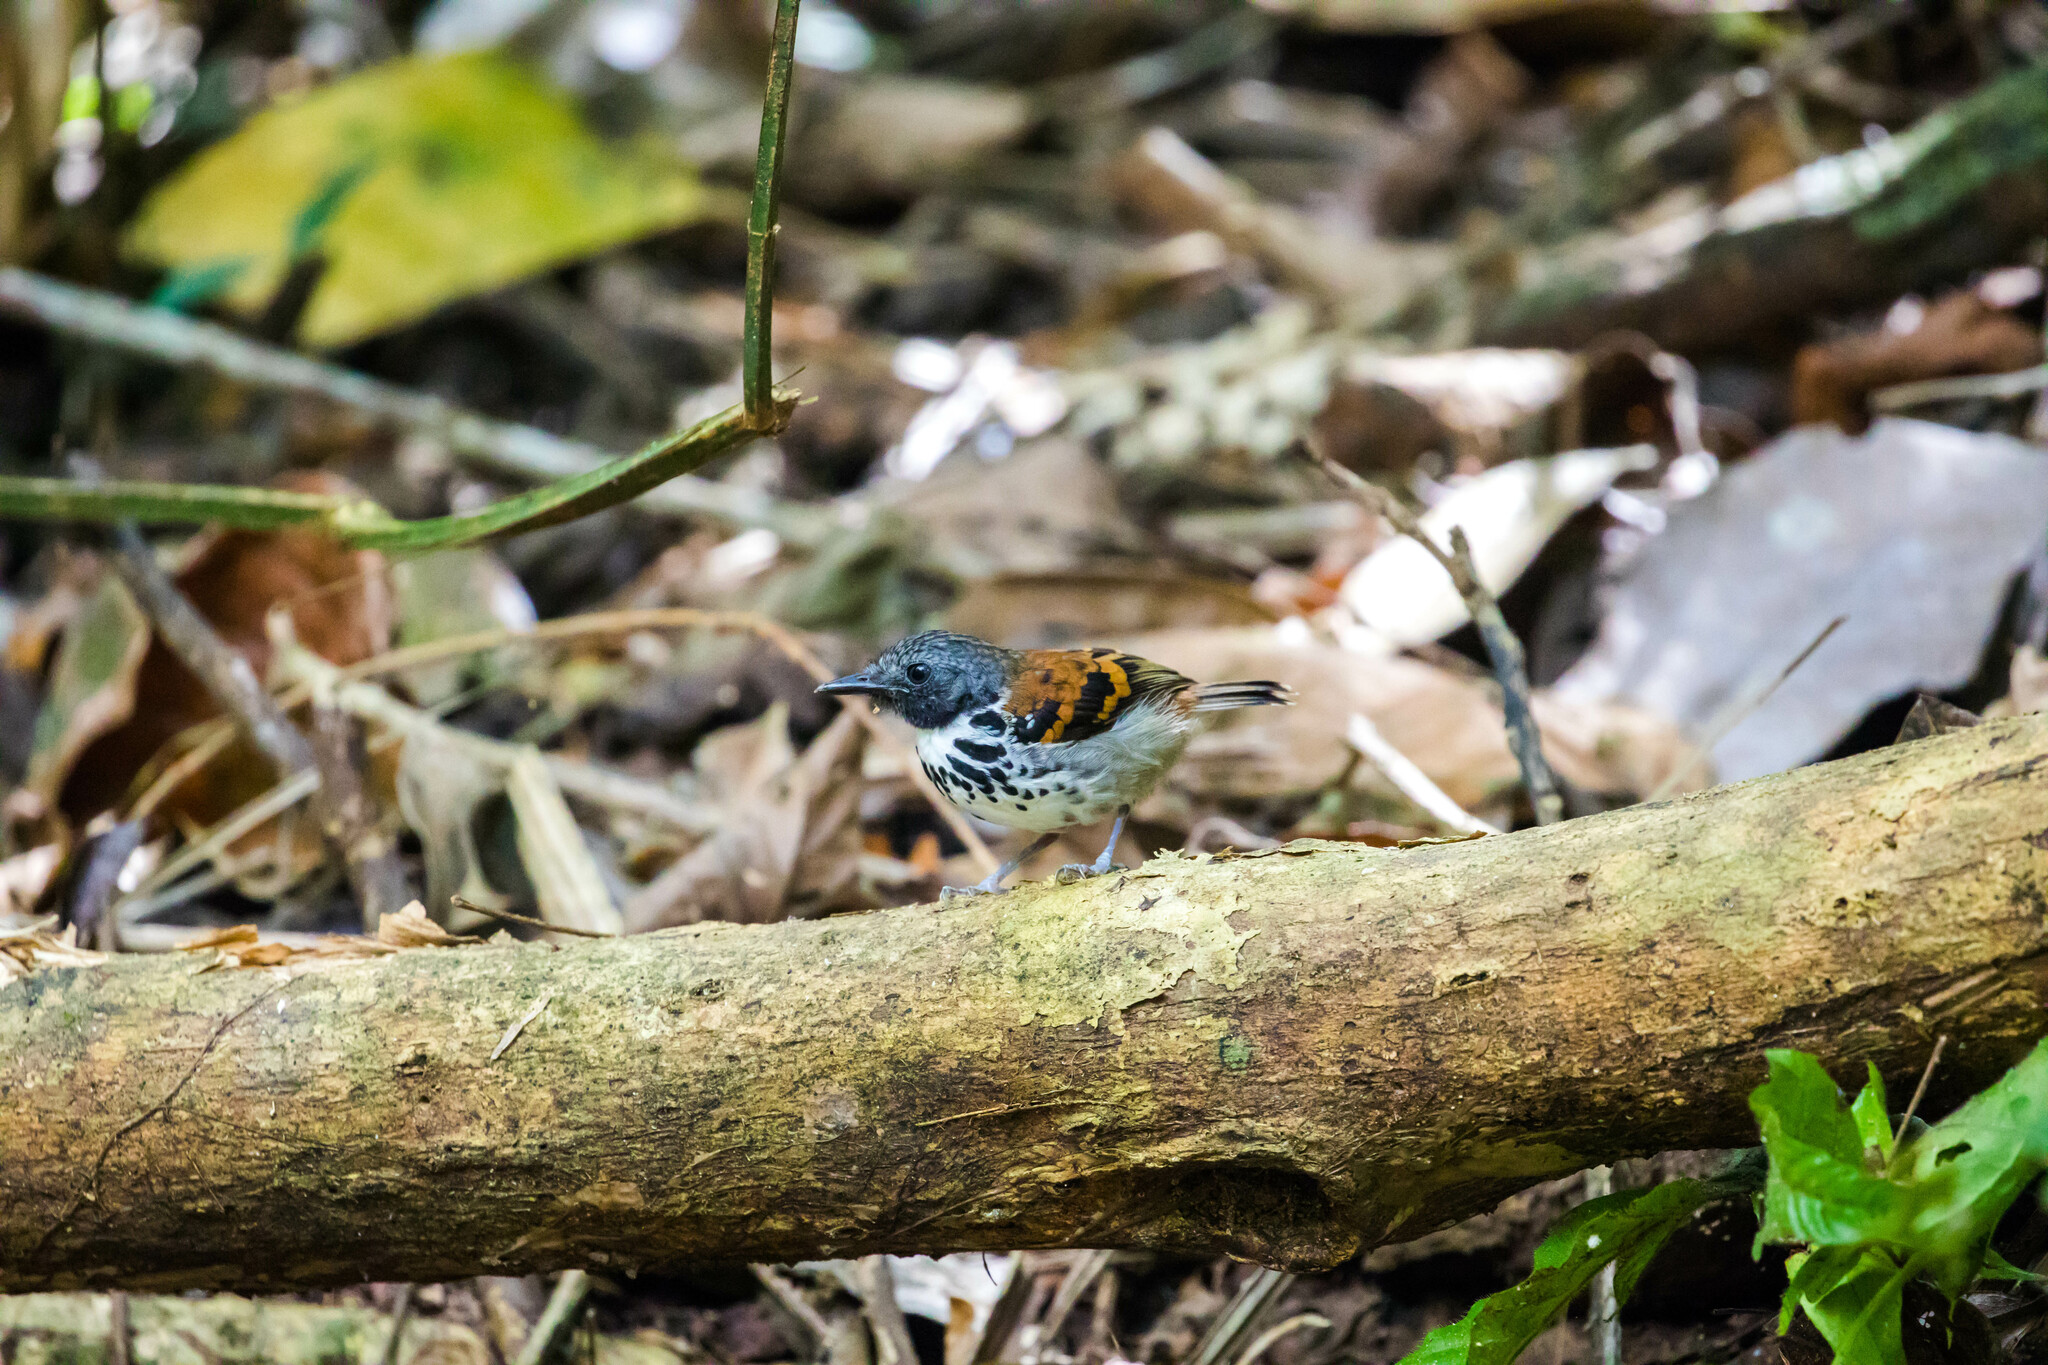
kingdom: Animalia
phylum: Chordata
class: Aves
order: Passeriformes
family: Thamnophilidae
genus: Hylophylax
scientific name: Hylophylax naevioides
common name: Spotted antbird
